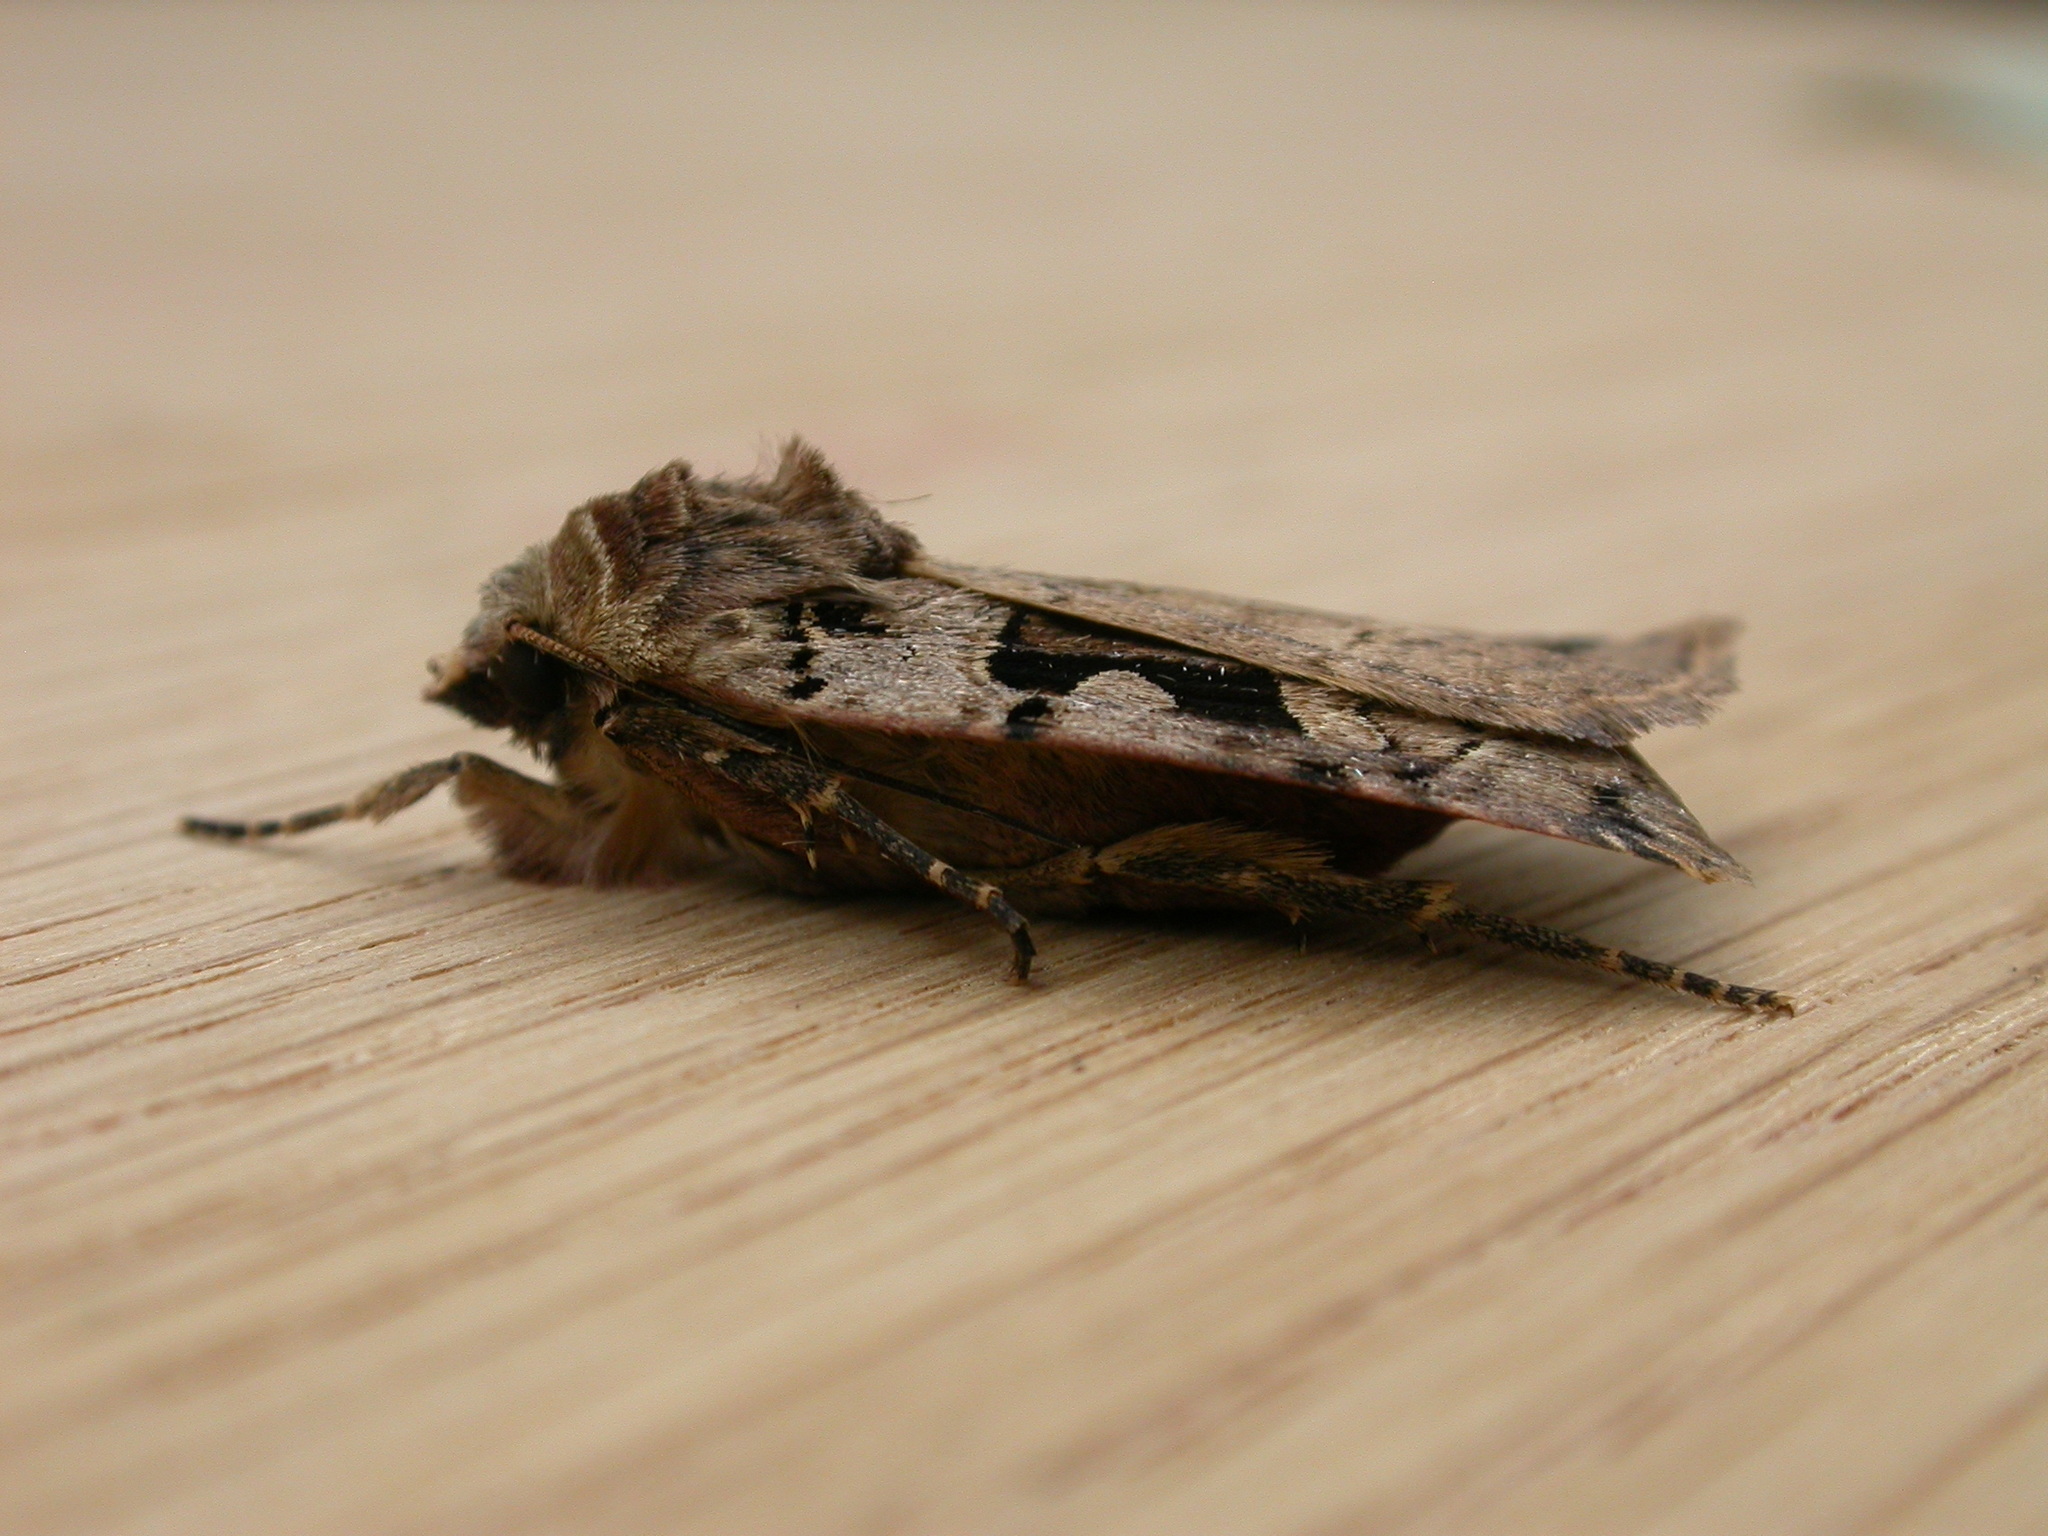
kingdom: Animalia
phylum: Arthropoda
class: Insecta
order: Lepidoptera
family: Noctuidae
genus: Xestia
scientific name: Xestia triangulum
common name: Double square-spot
